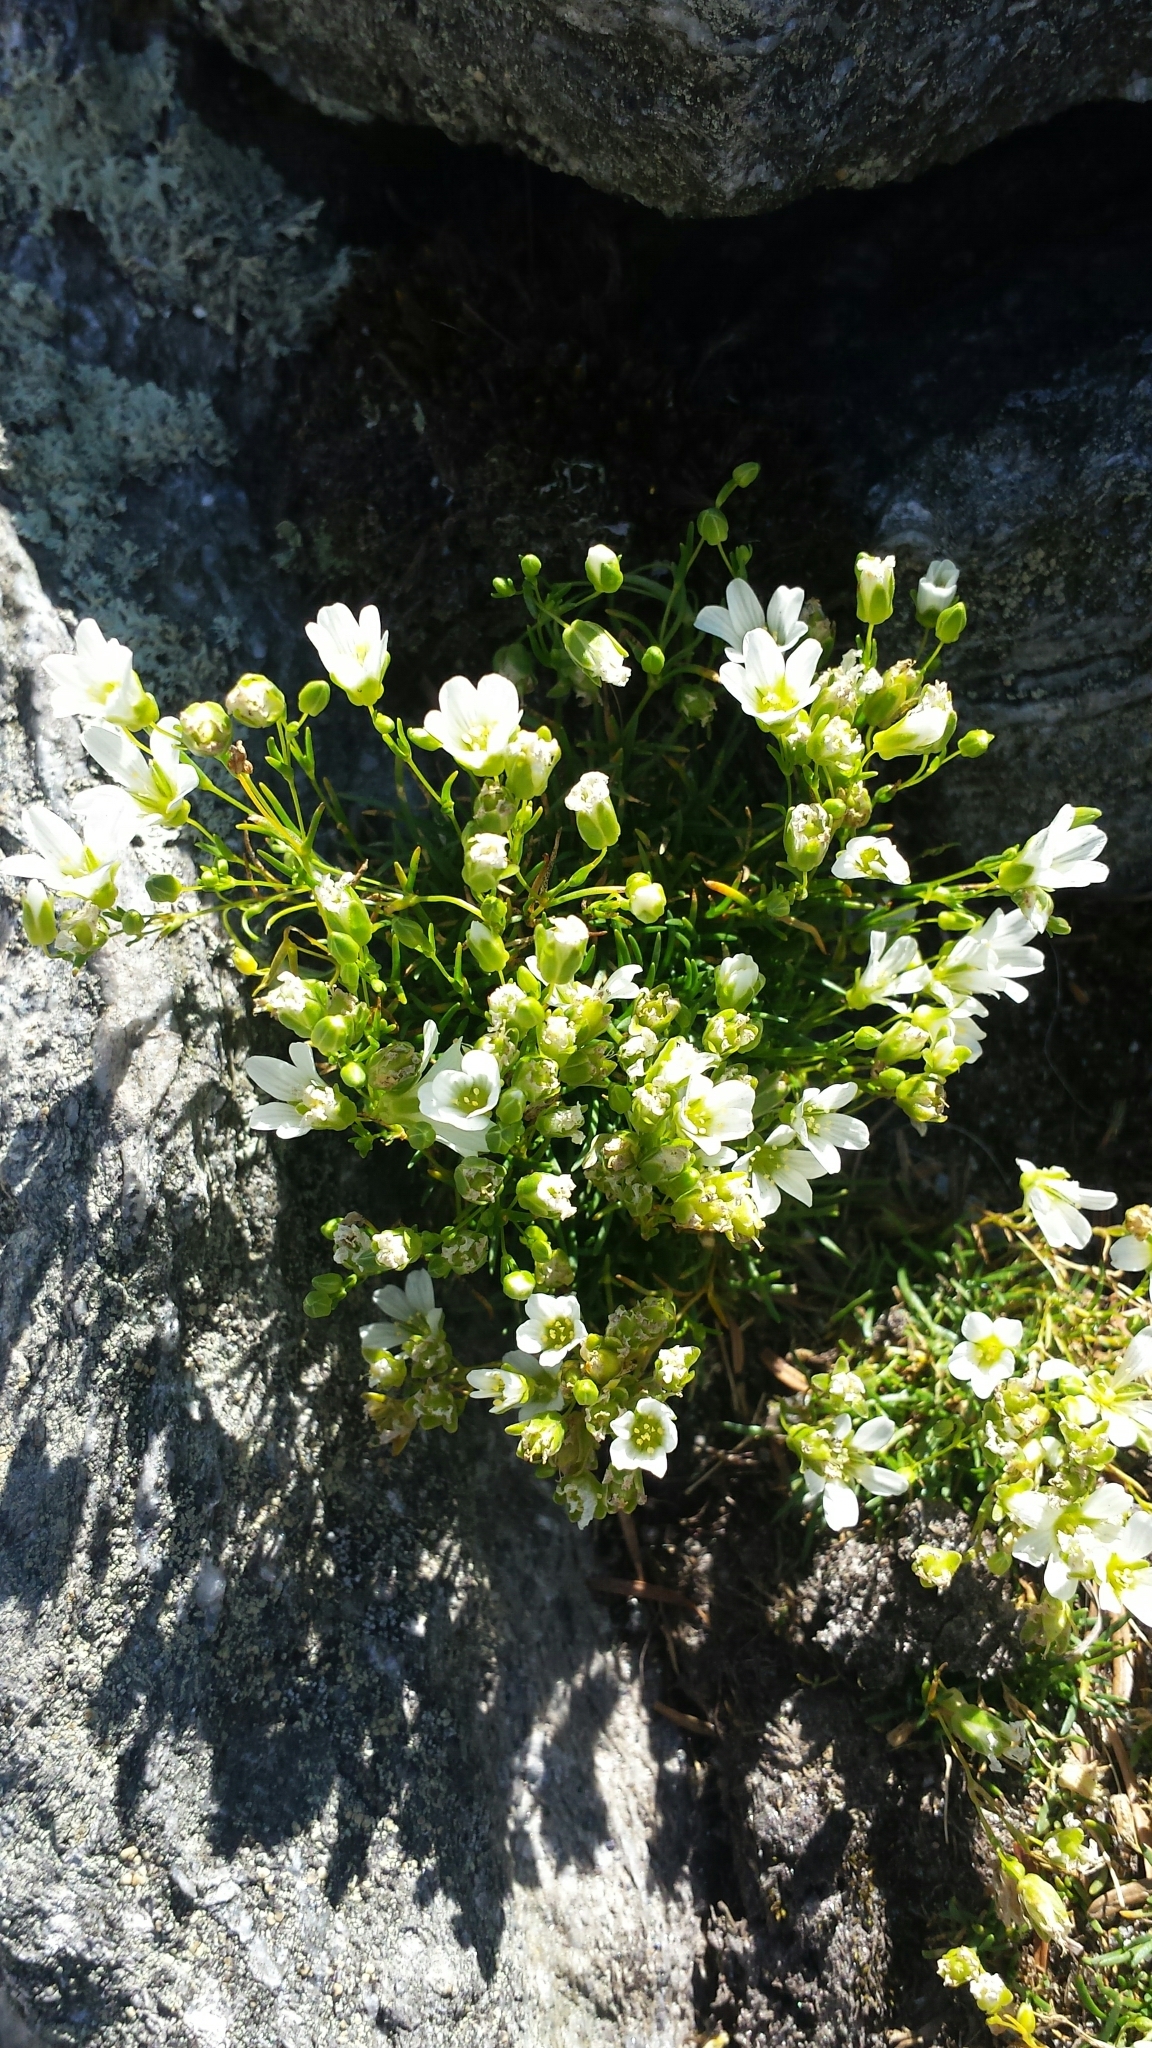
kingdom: Plantae
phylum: Tracheophyta
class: Magnoliopsida
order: Caryophyllales
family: Caryophyllaceae
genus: Geocarpon
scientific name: Geocarpon groenlandicum
